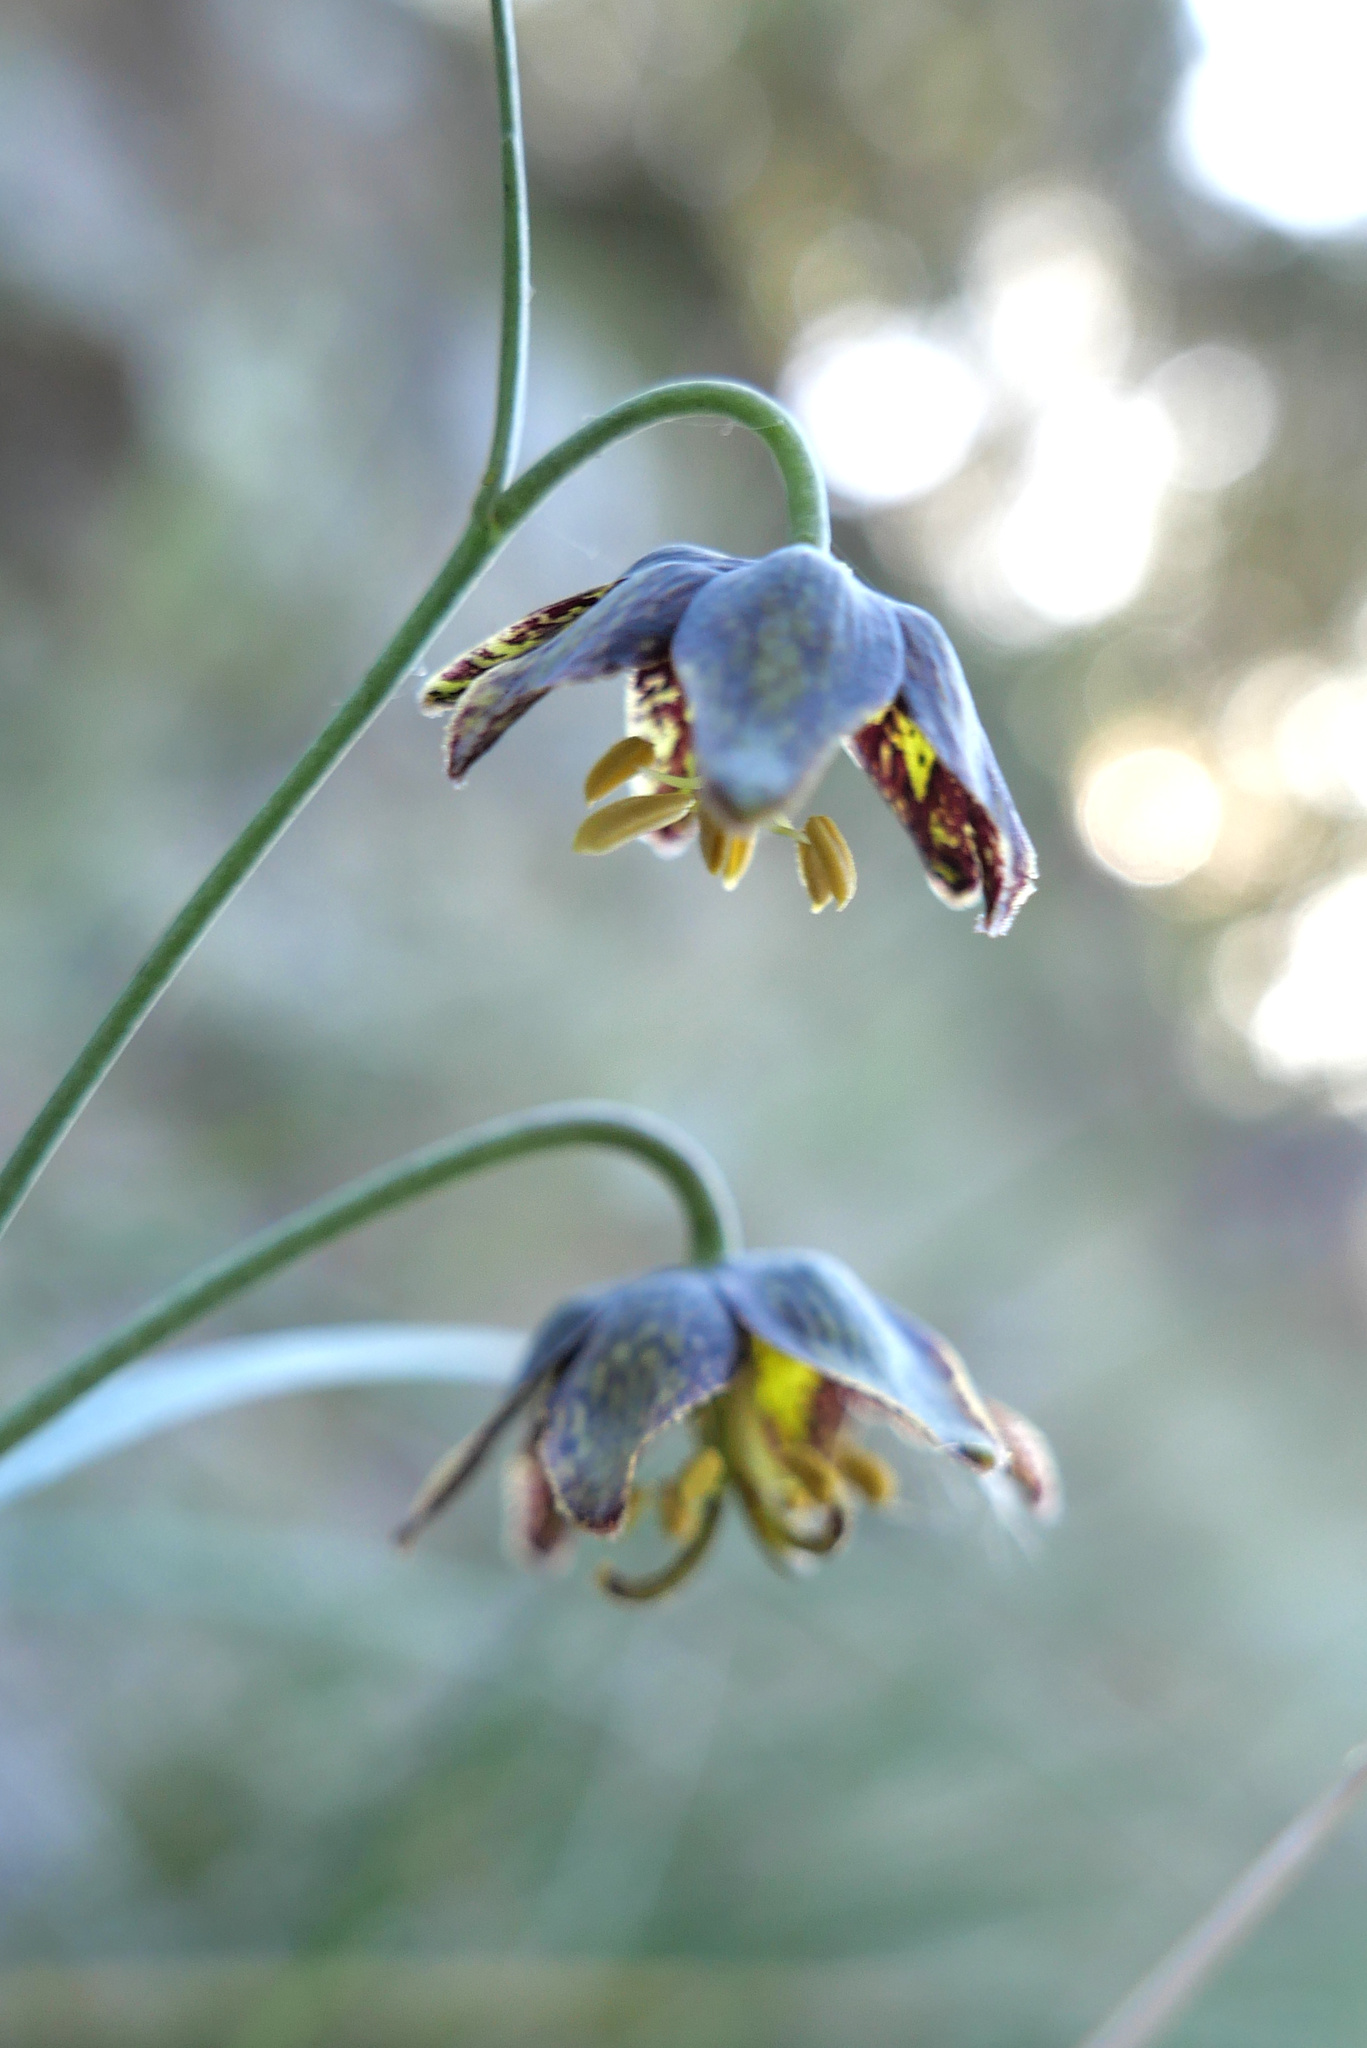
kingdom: Plantae
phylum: Tracheophyta
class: Liliopsida
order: Liliales
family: Liliaceae
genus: Fritillaria
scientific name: Fritillaria ojaiensis
